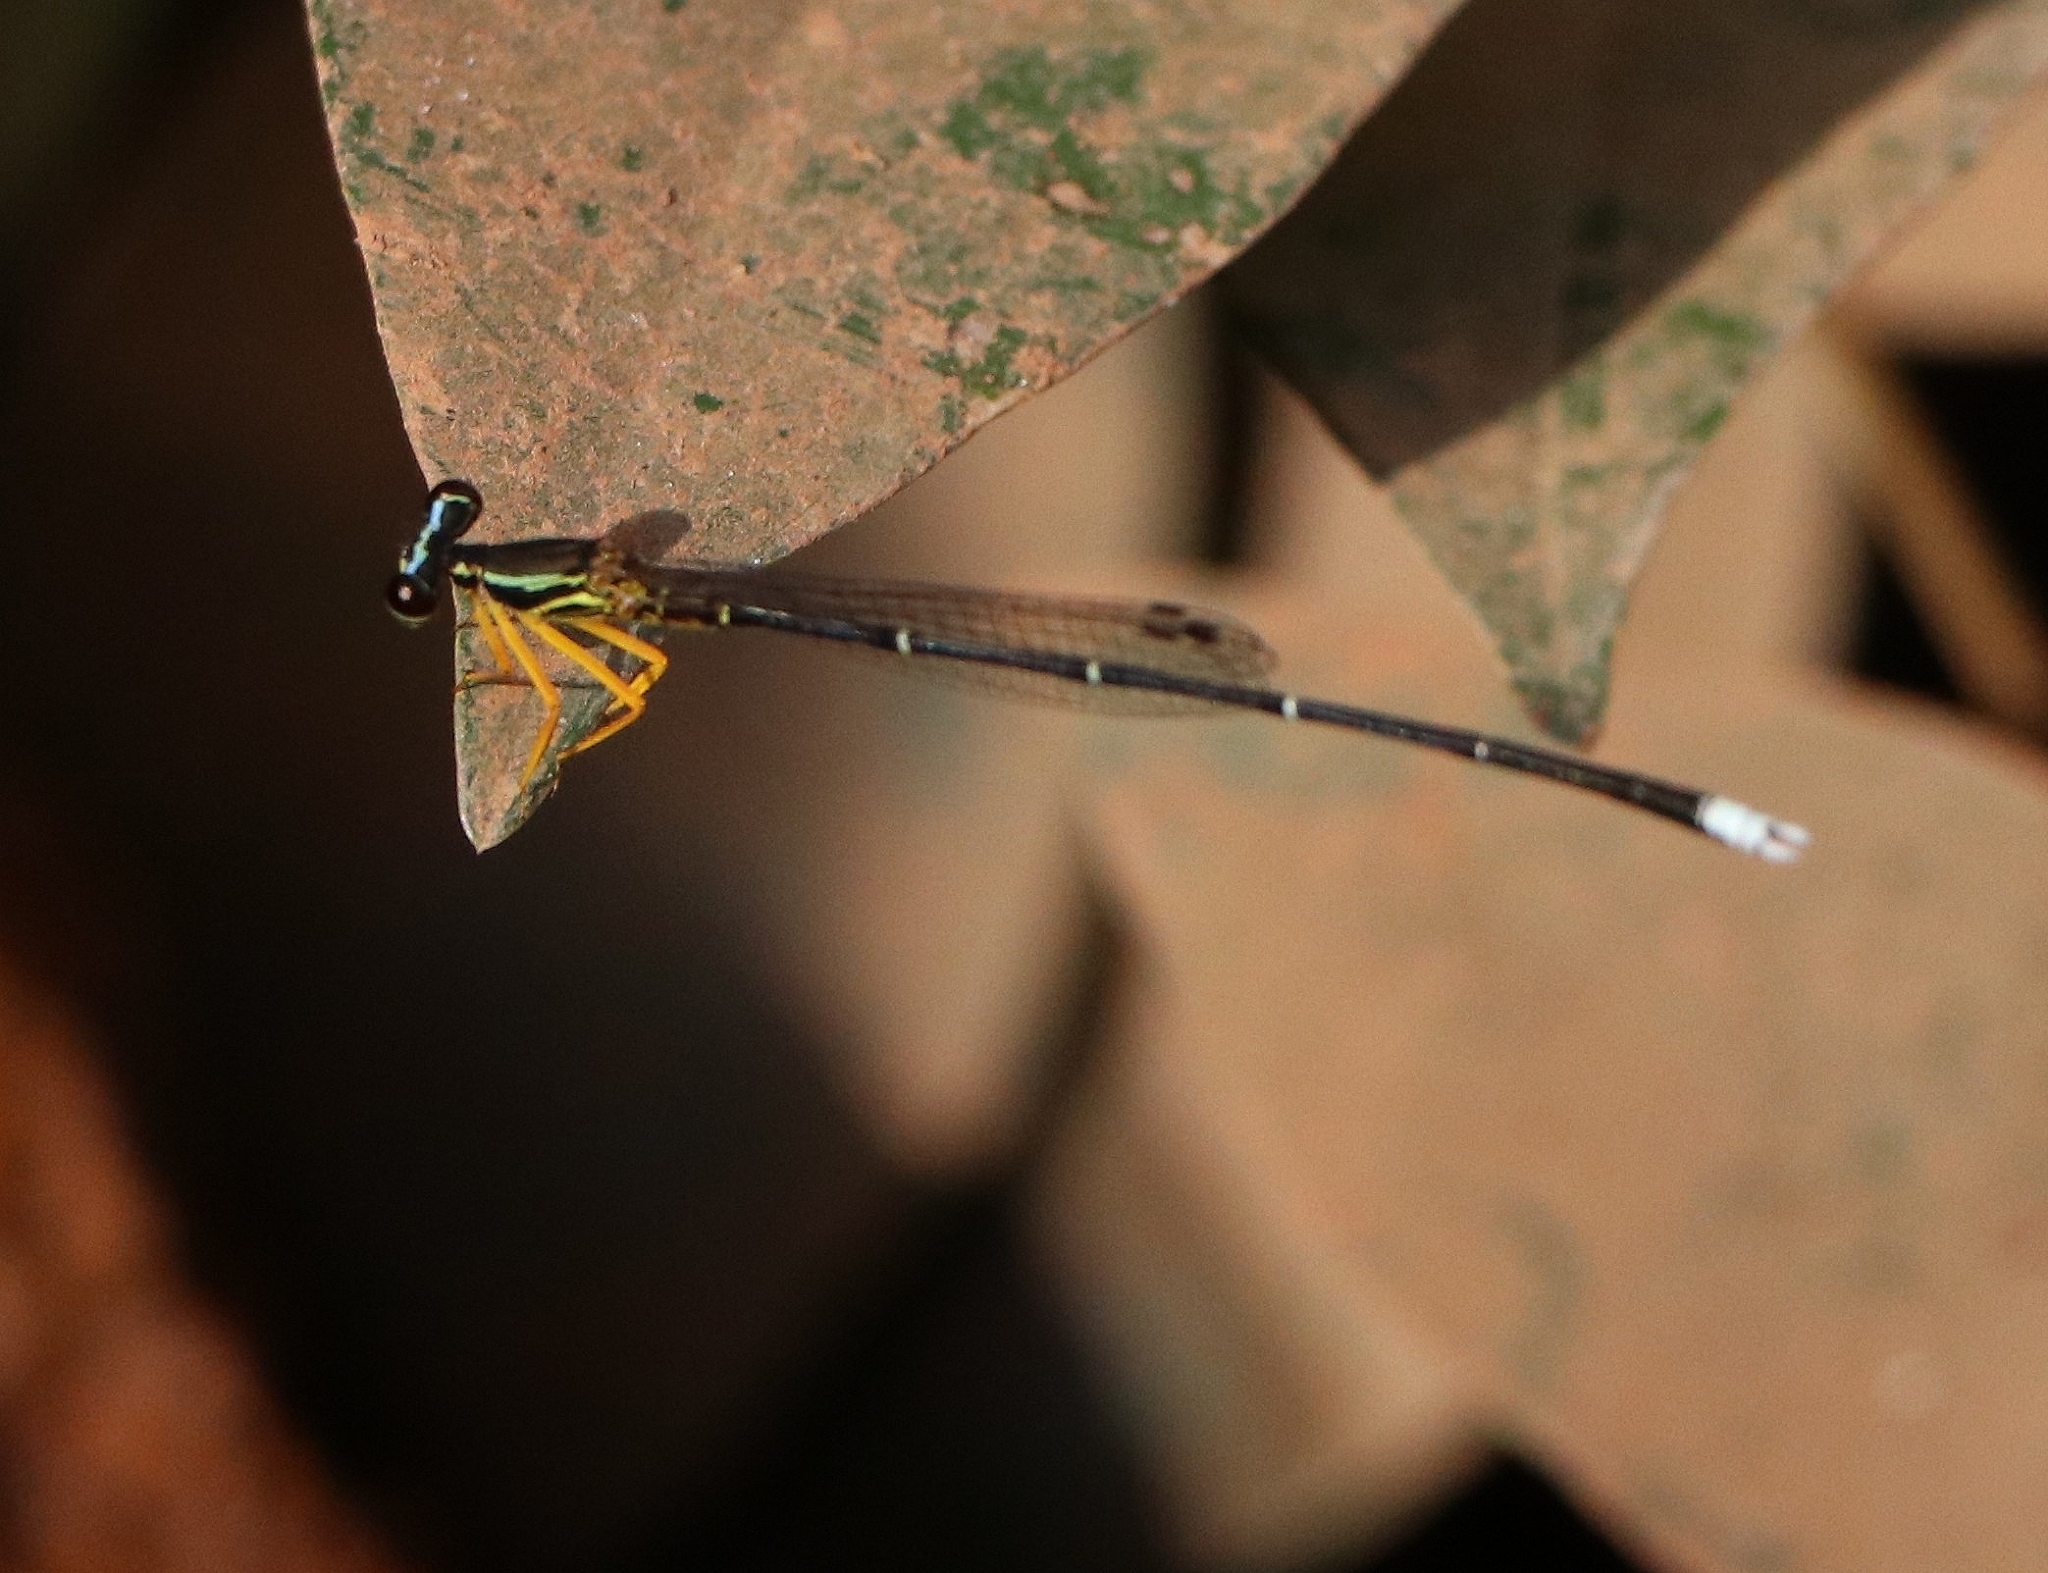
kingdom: Animalia
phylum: Arthropoda
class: Insecta
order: Odonata
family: Platycnemididae
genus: Copera
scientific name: Copera marginipes
